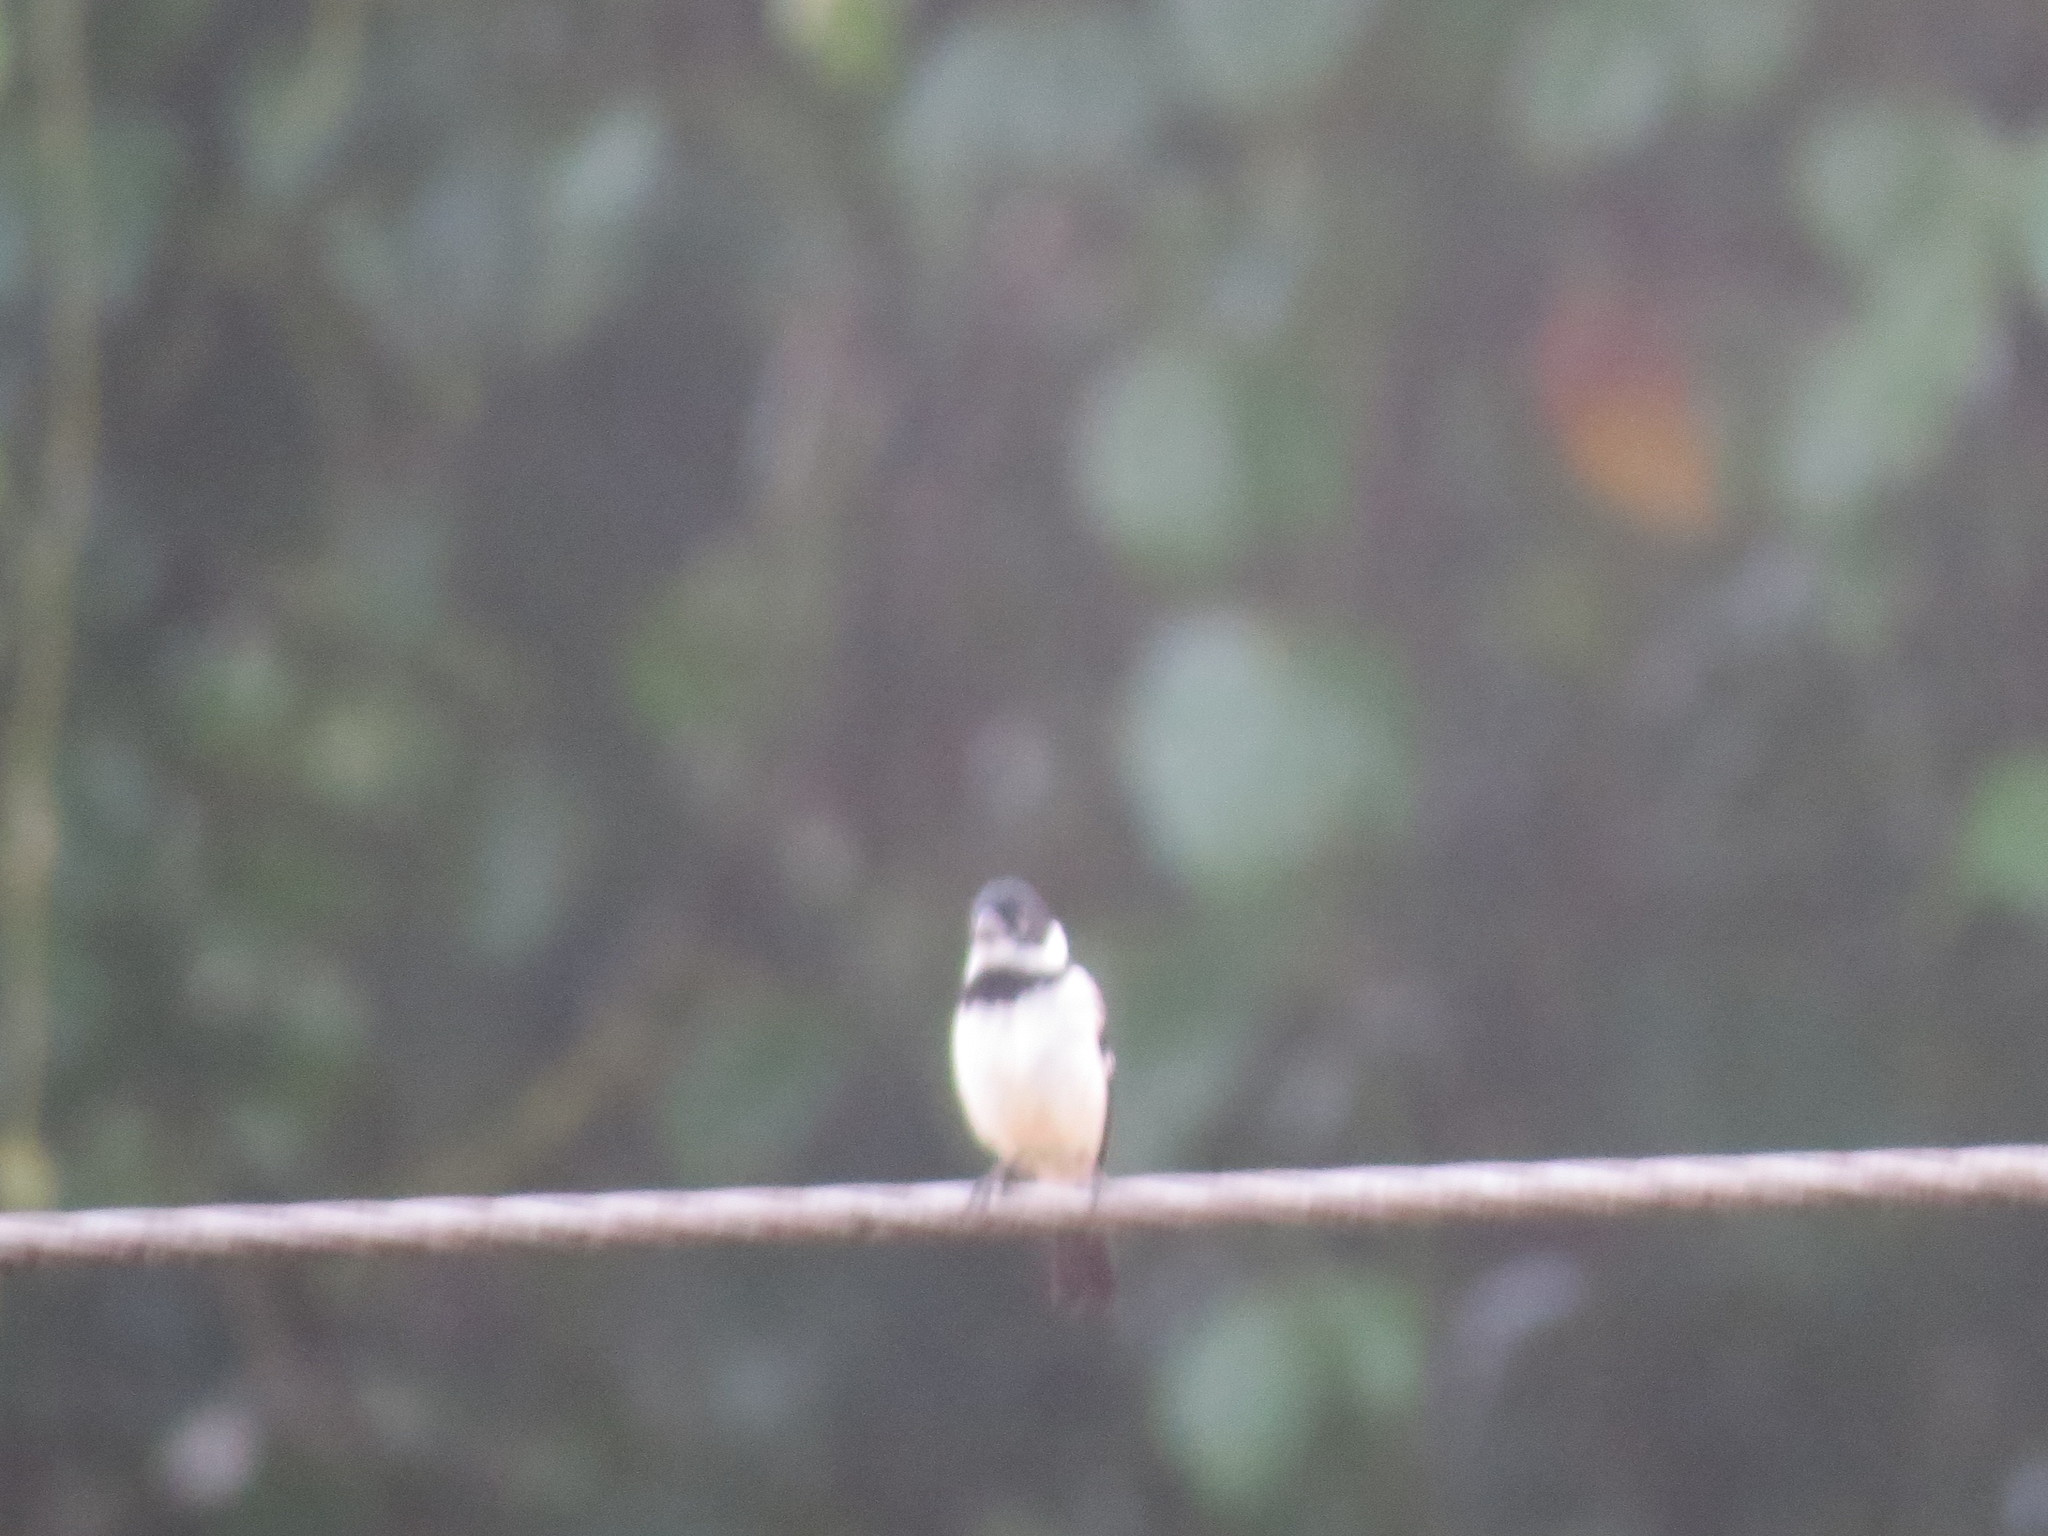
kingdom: Animalia
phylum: Chordata
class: Aves
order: Passeriformes
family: Thraupidae
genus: Sporophila
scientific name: Sporophila morelleti
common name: Morelet's seedeater
